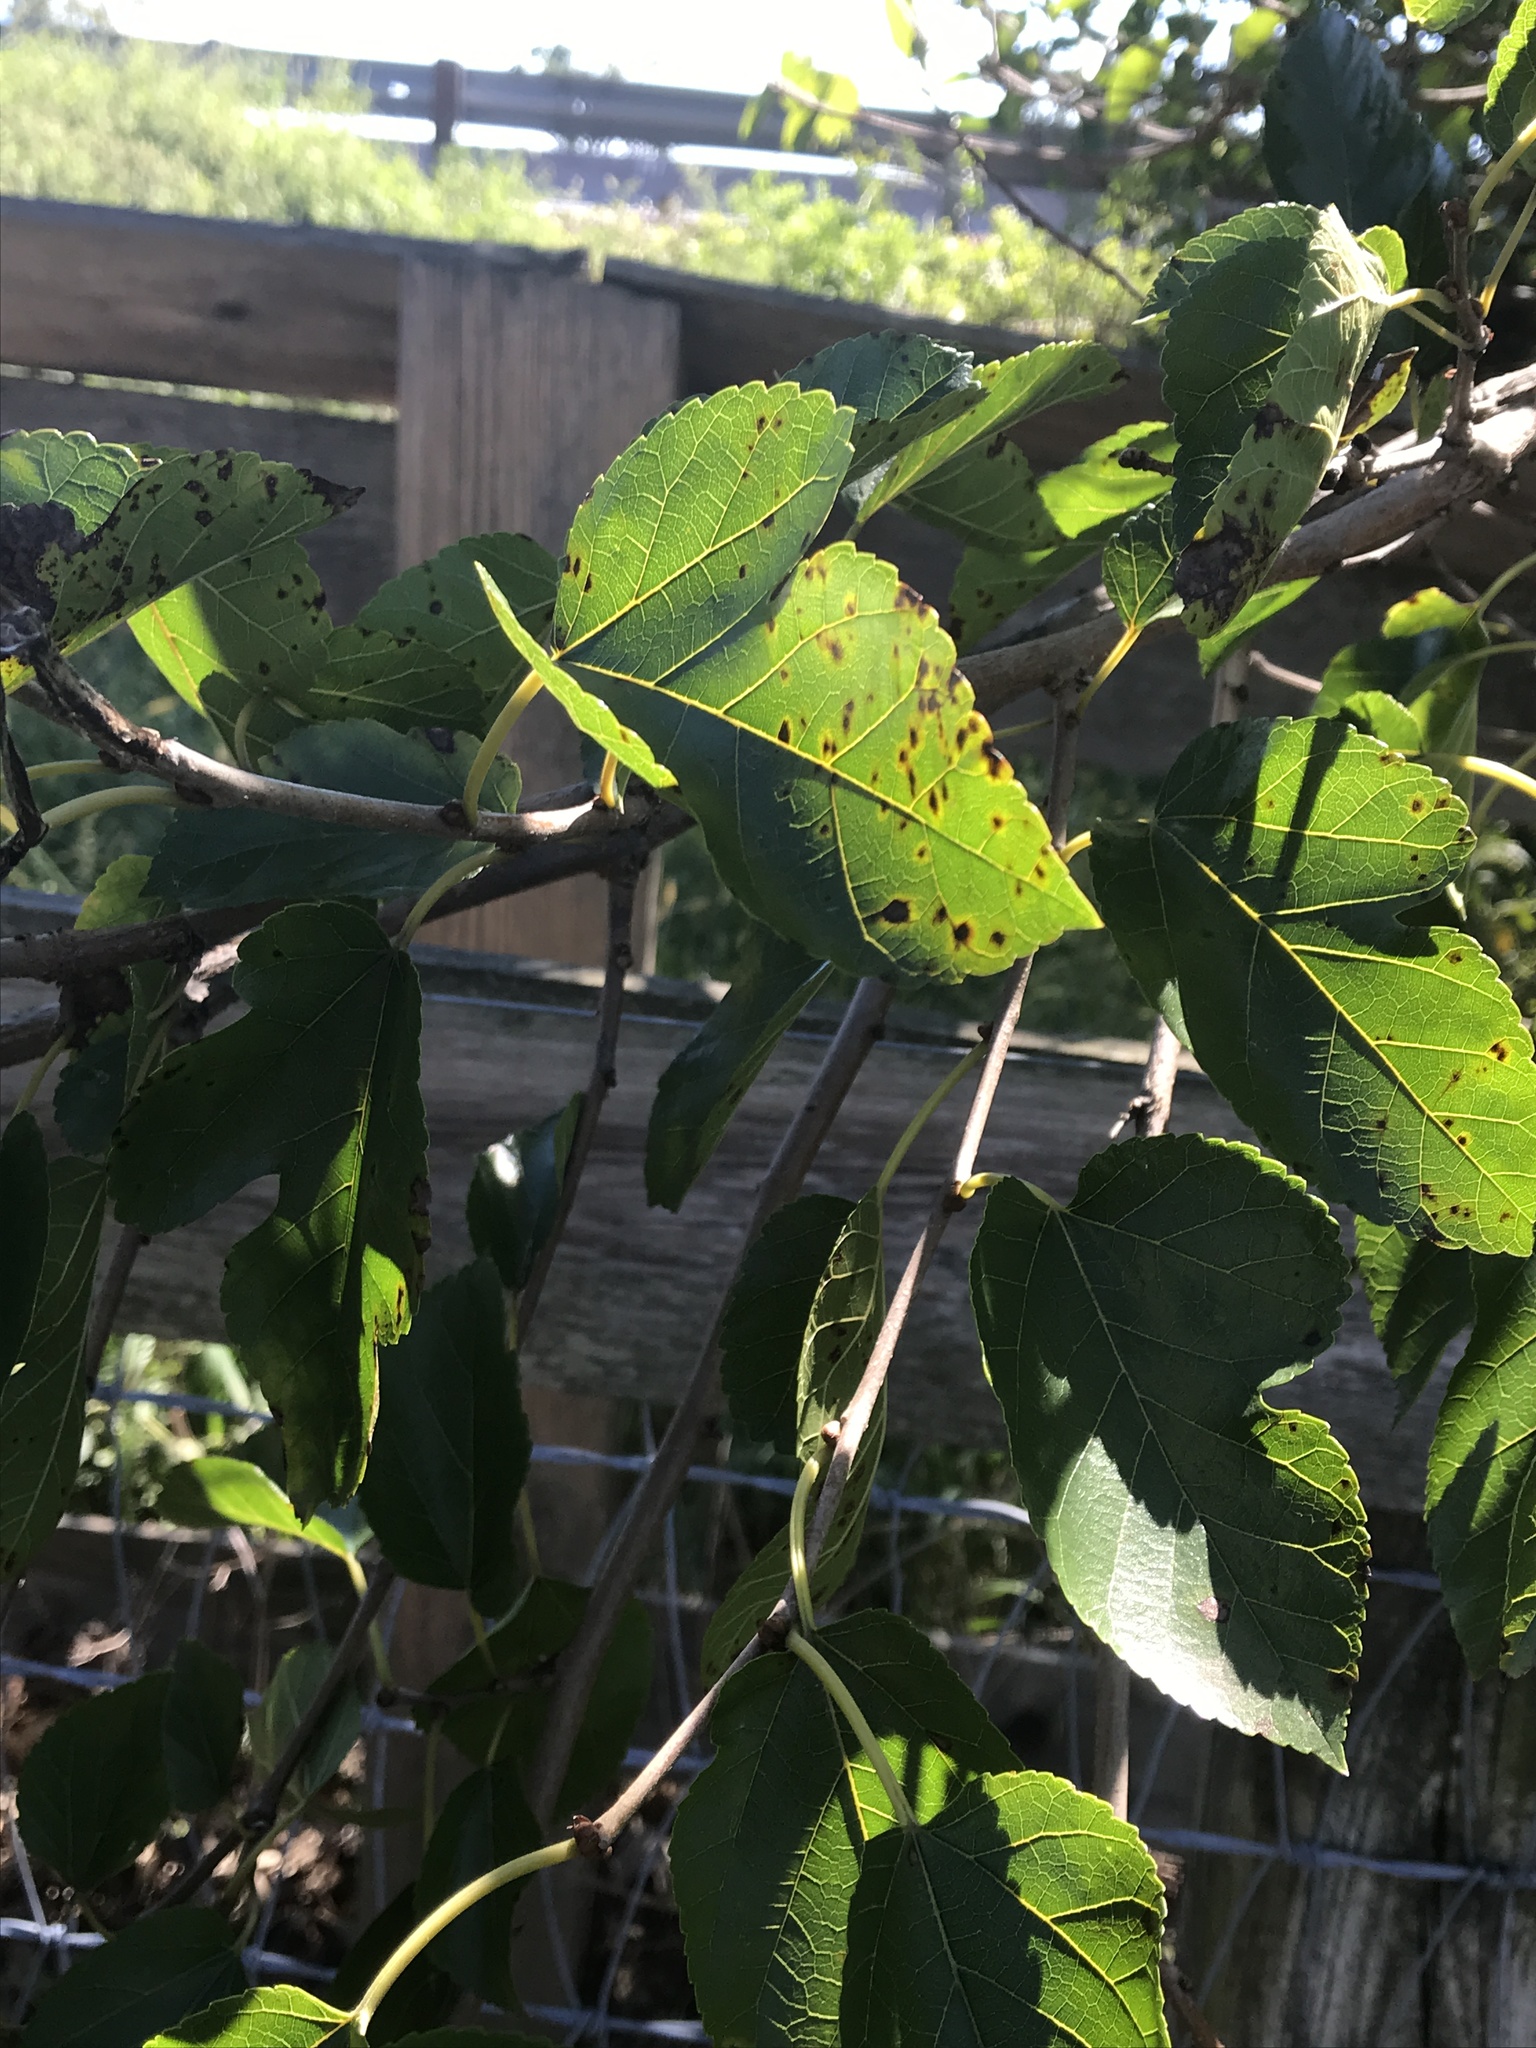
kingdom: Plantae
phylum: Tracheophyta
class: Magnoliopsida
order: Rosales
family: Moraceae
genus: Morus
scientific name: Morus alba
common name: White mulberry
